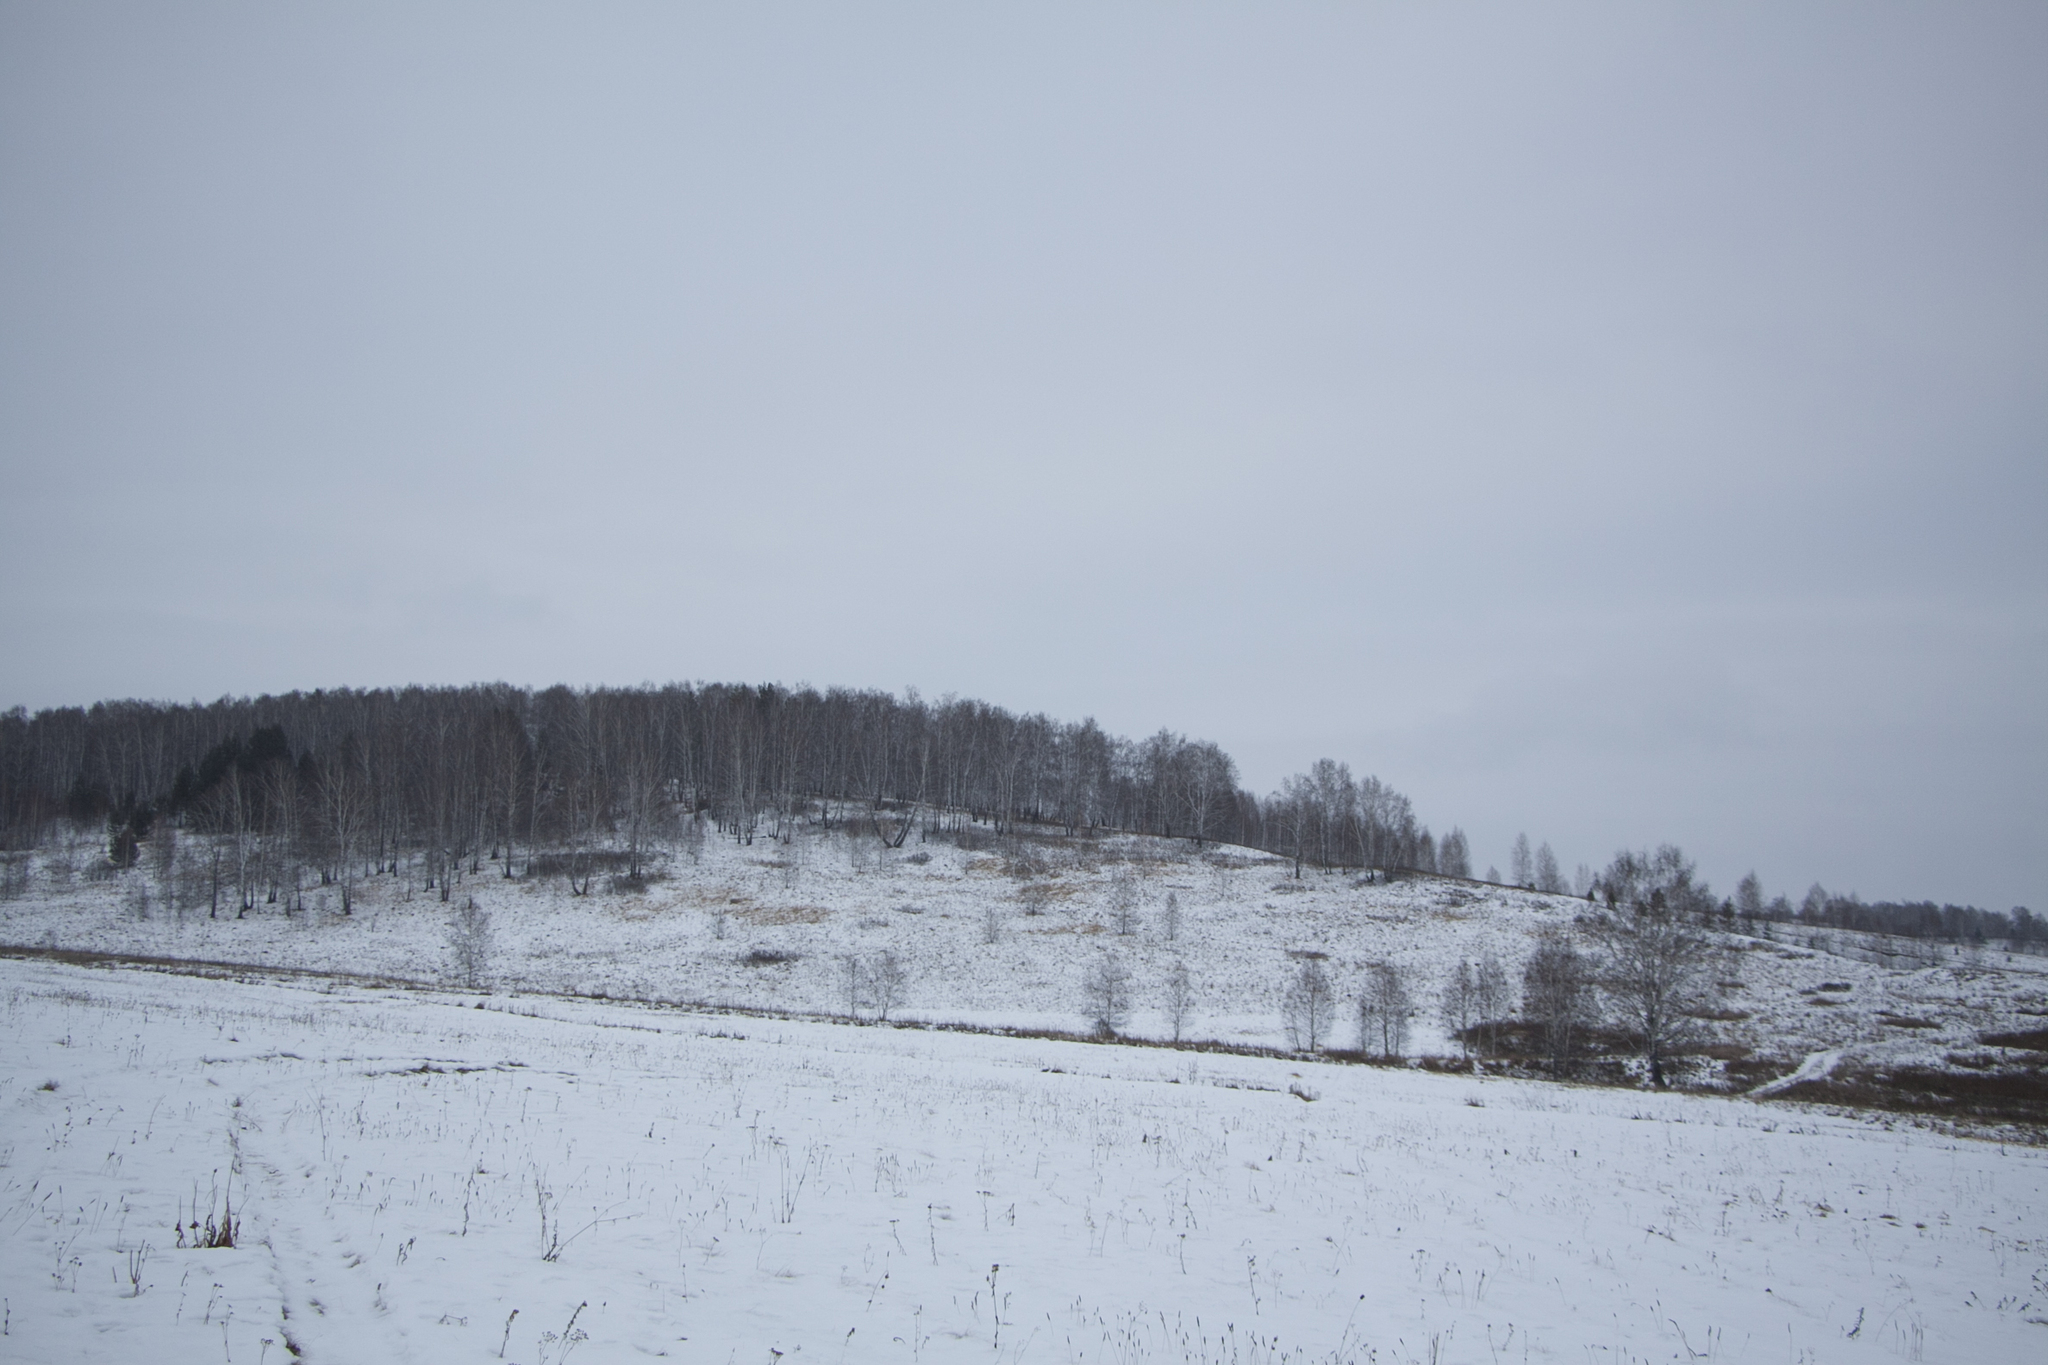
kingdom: Plantae
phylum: Tracheophyta
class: Magnoliopsida
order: Fagales
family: Betulaceae
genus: Betula
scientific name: Betula pendula
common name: Silver birch
